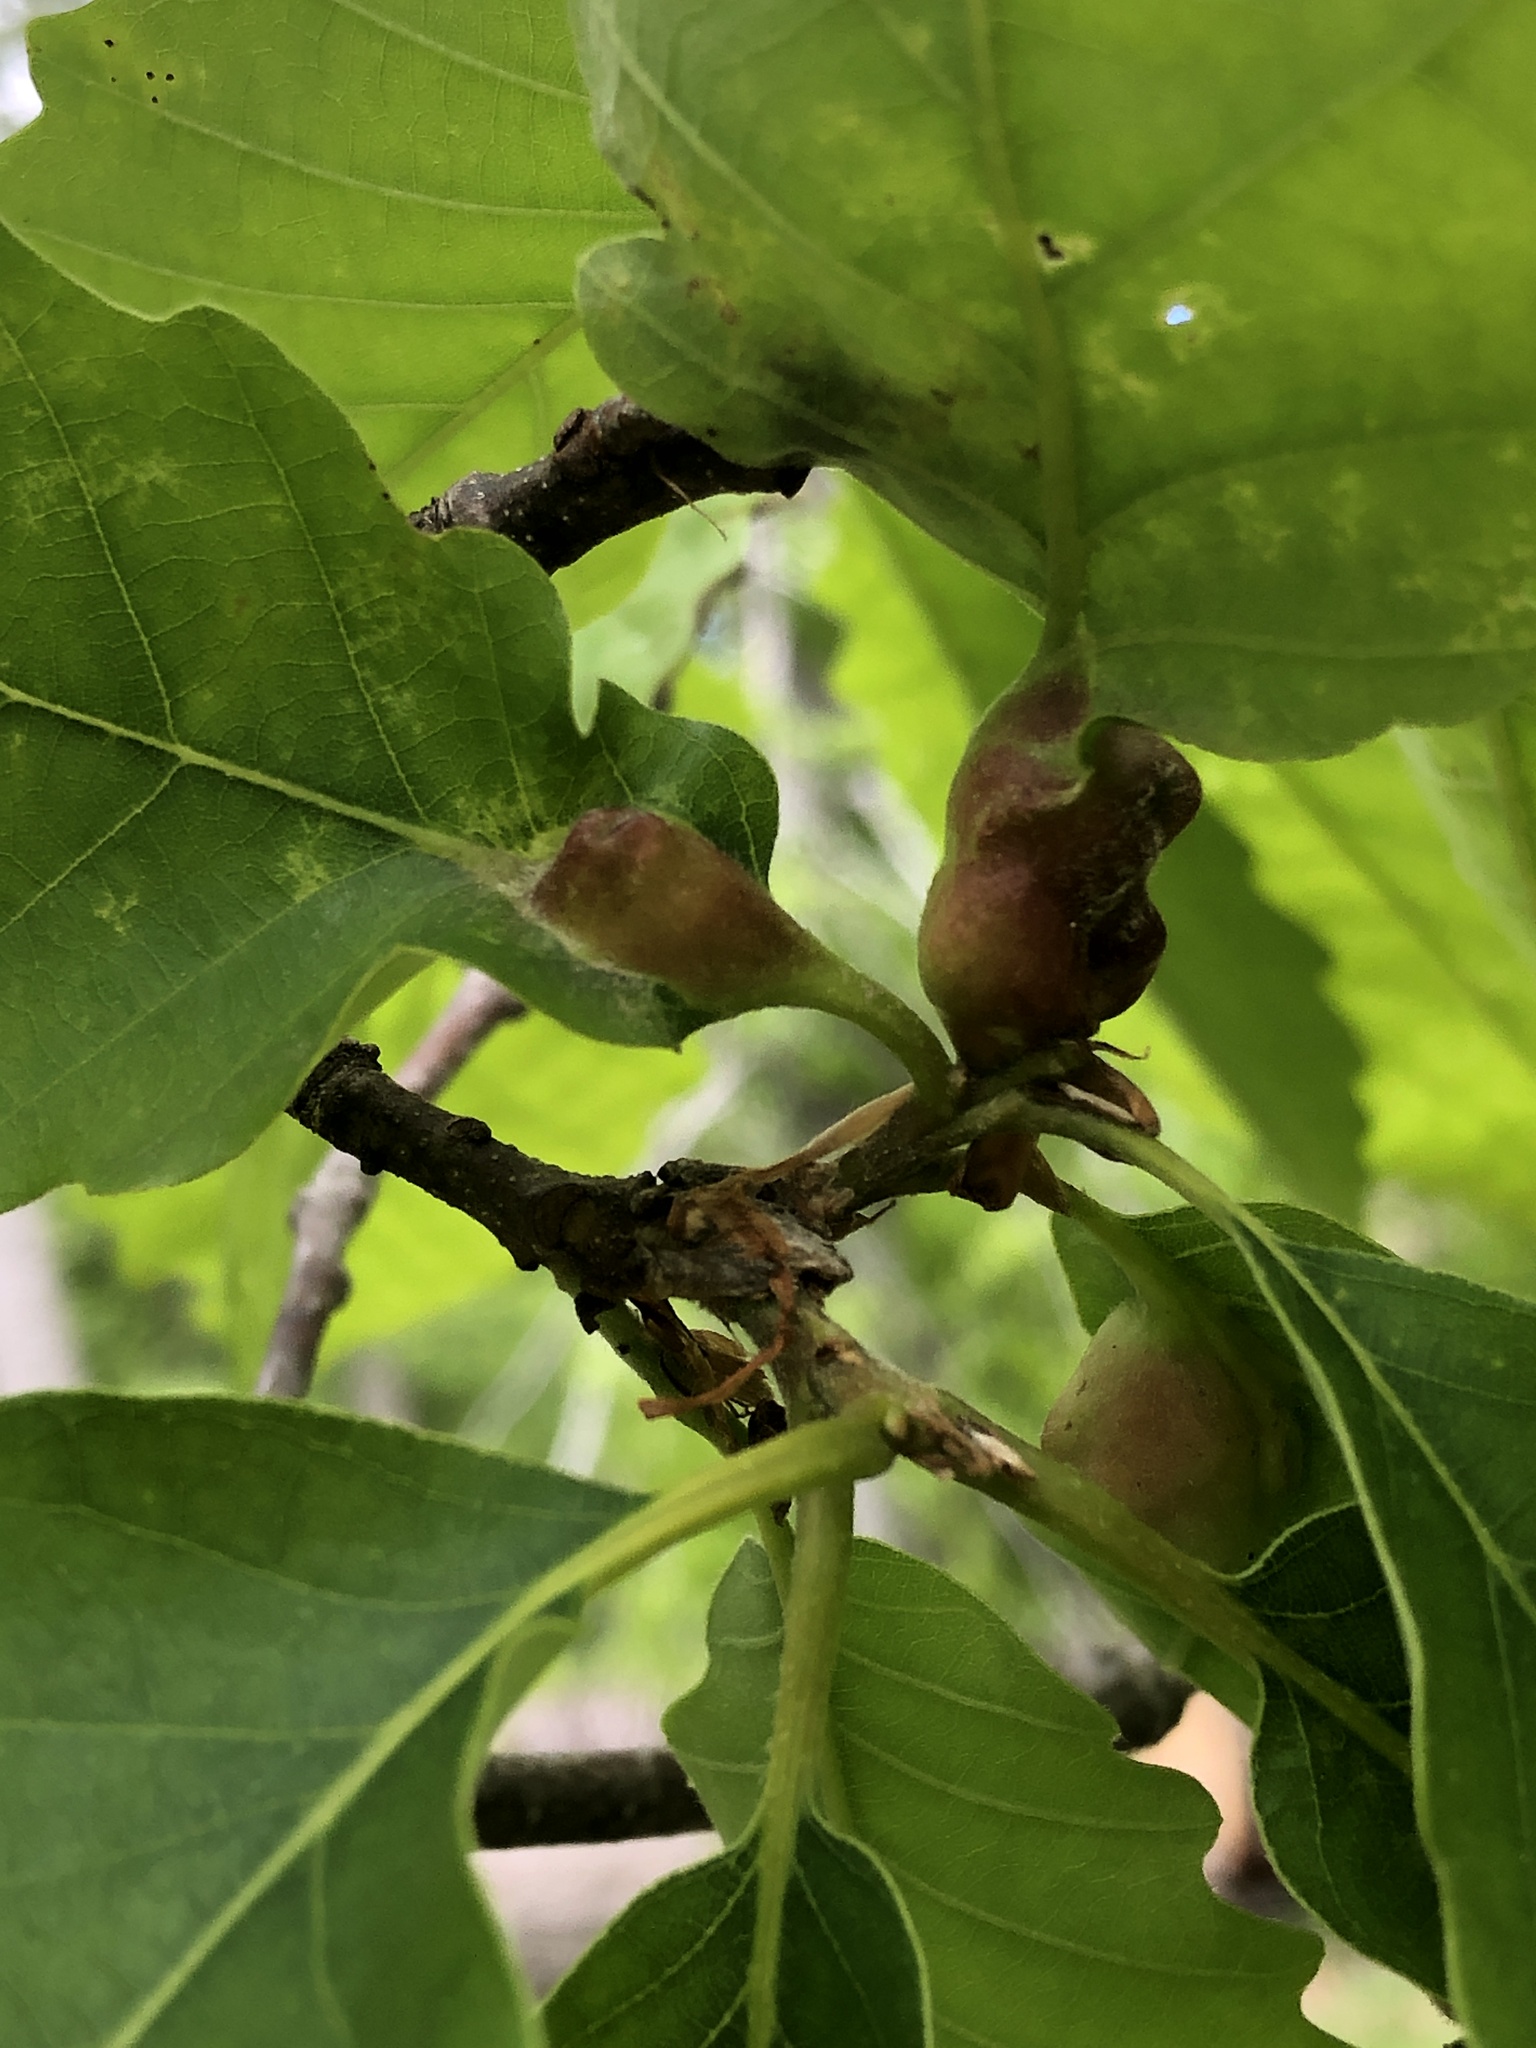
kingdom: Animalia
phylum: Arthropoda
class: Insecta
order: Hymenoptera
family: Cynipidae
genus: Andricus
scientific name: Andricus
